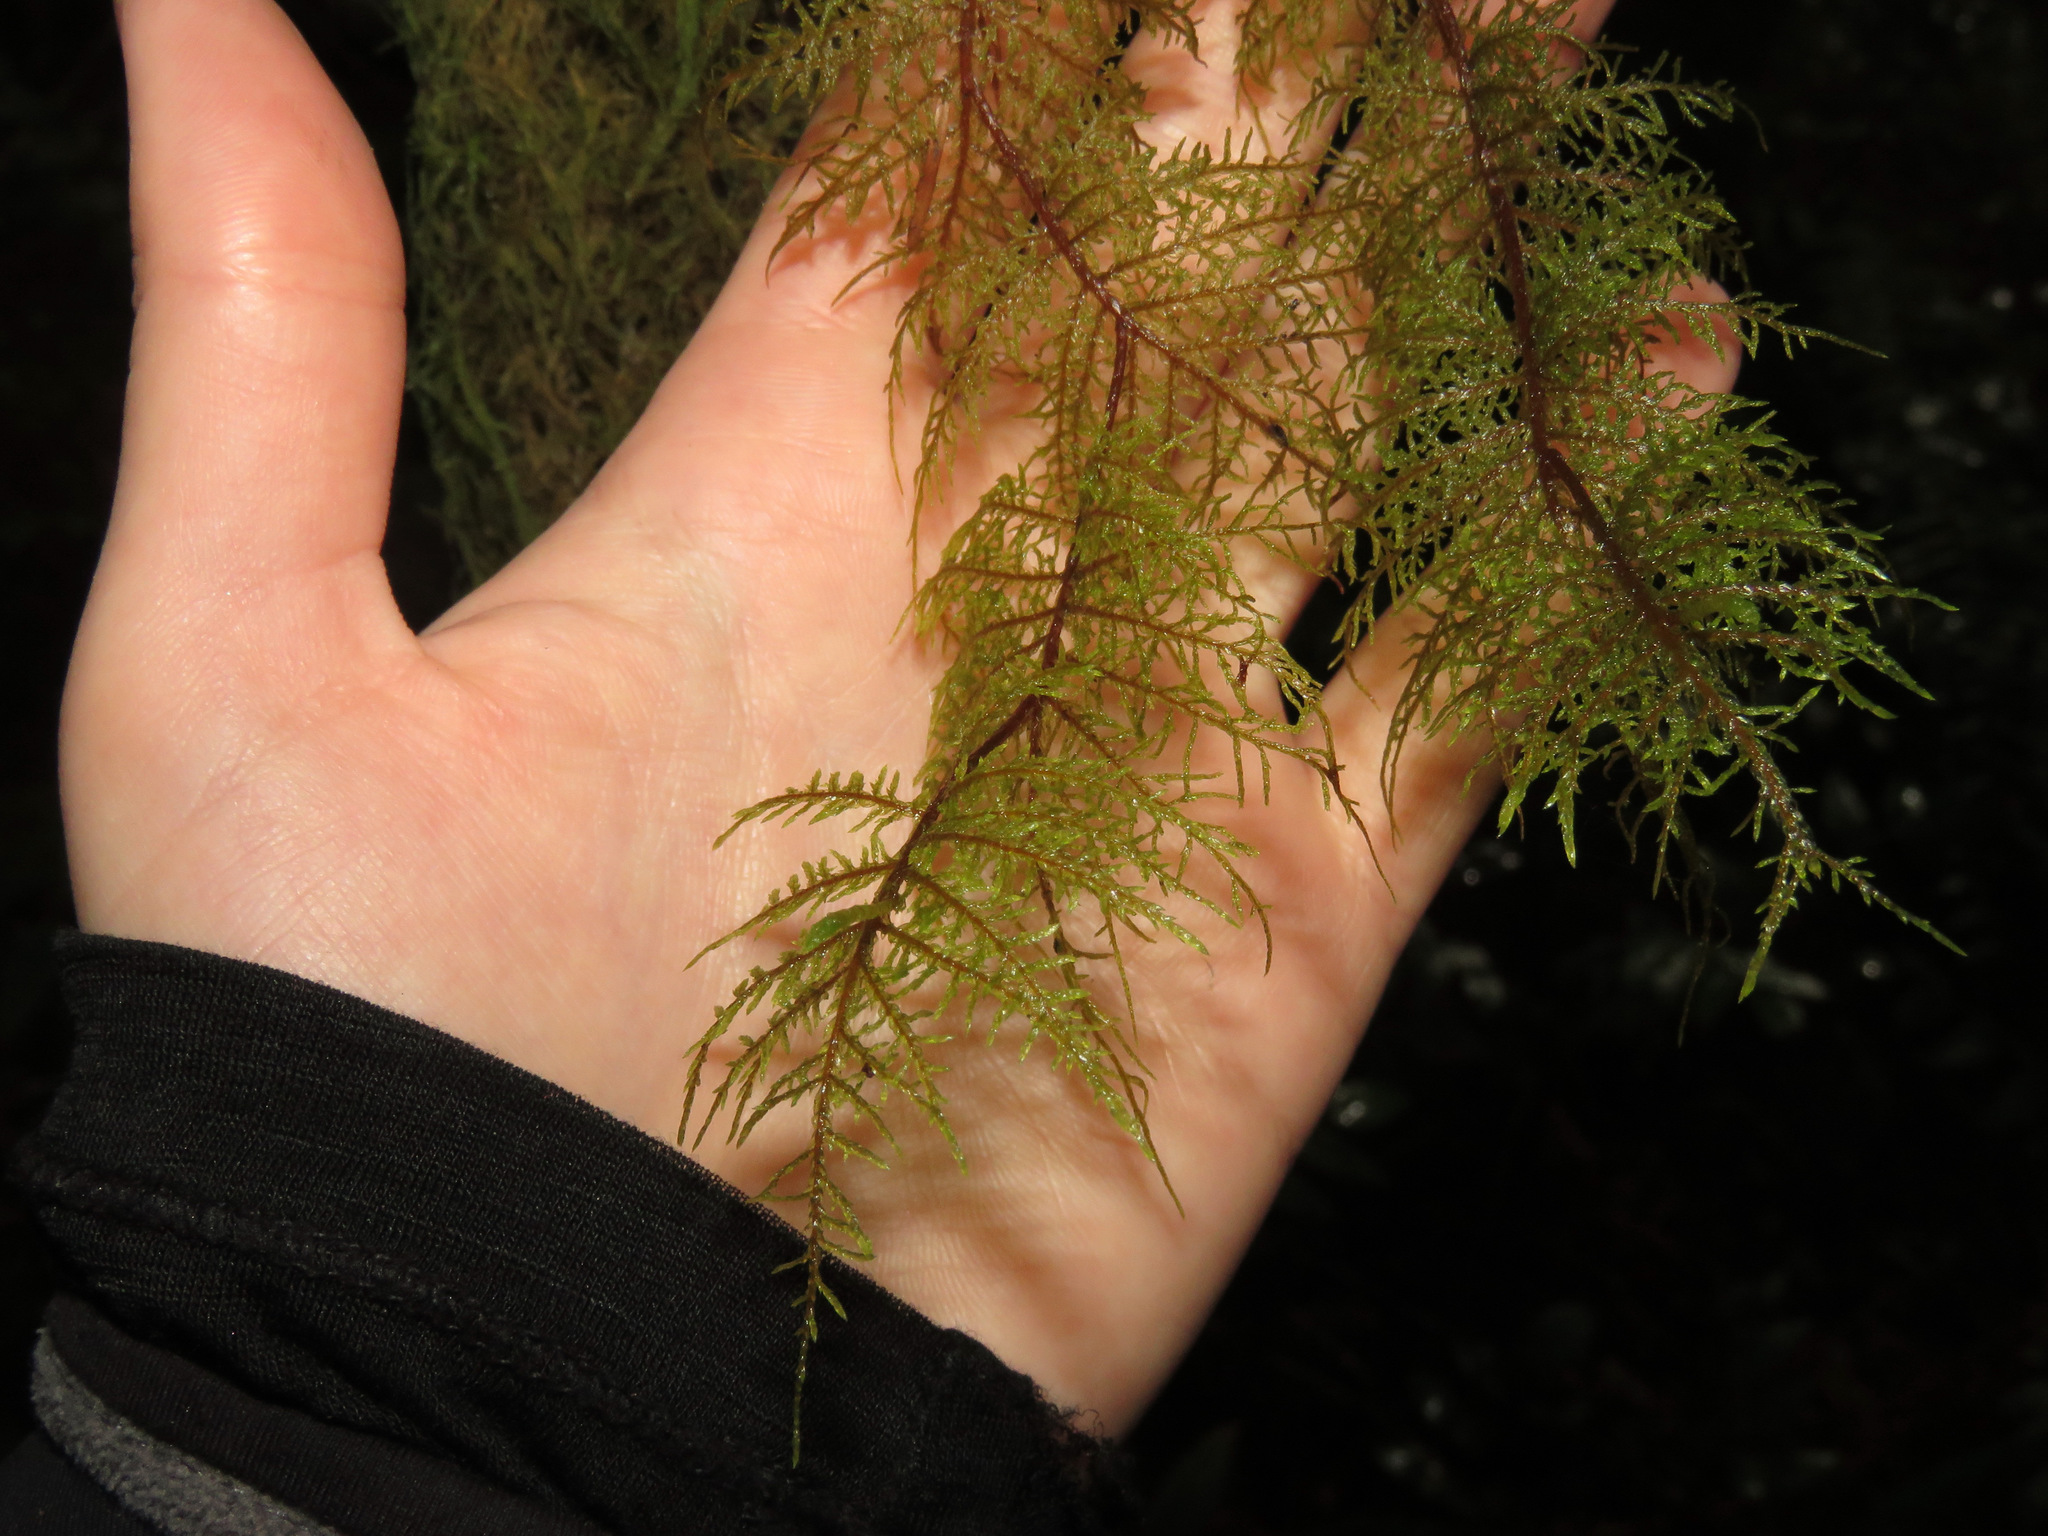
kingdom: Plantae
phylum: Bryophyta
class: Bryopsida
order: Hypnales
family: Hylocomiaceae
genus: Hylocomium
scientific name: Hylocomium splendens
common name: Stairstep moss
